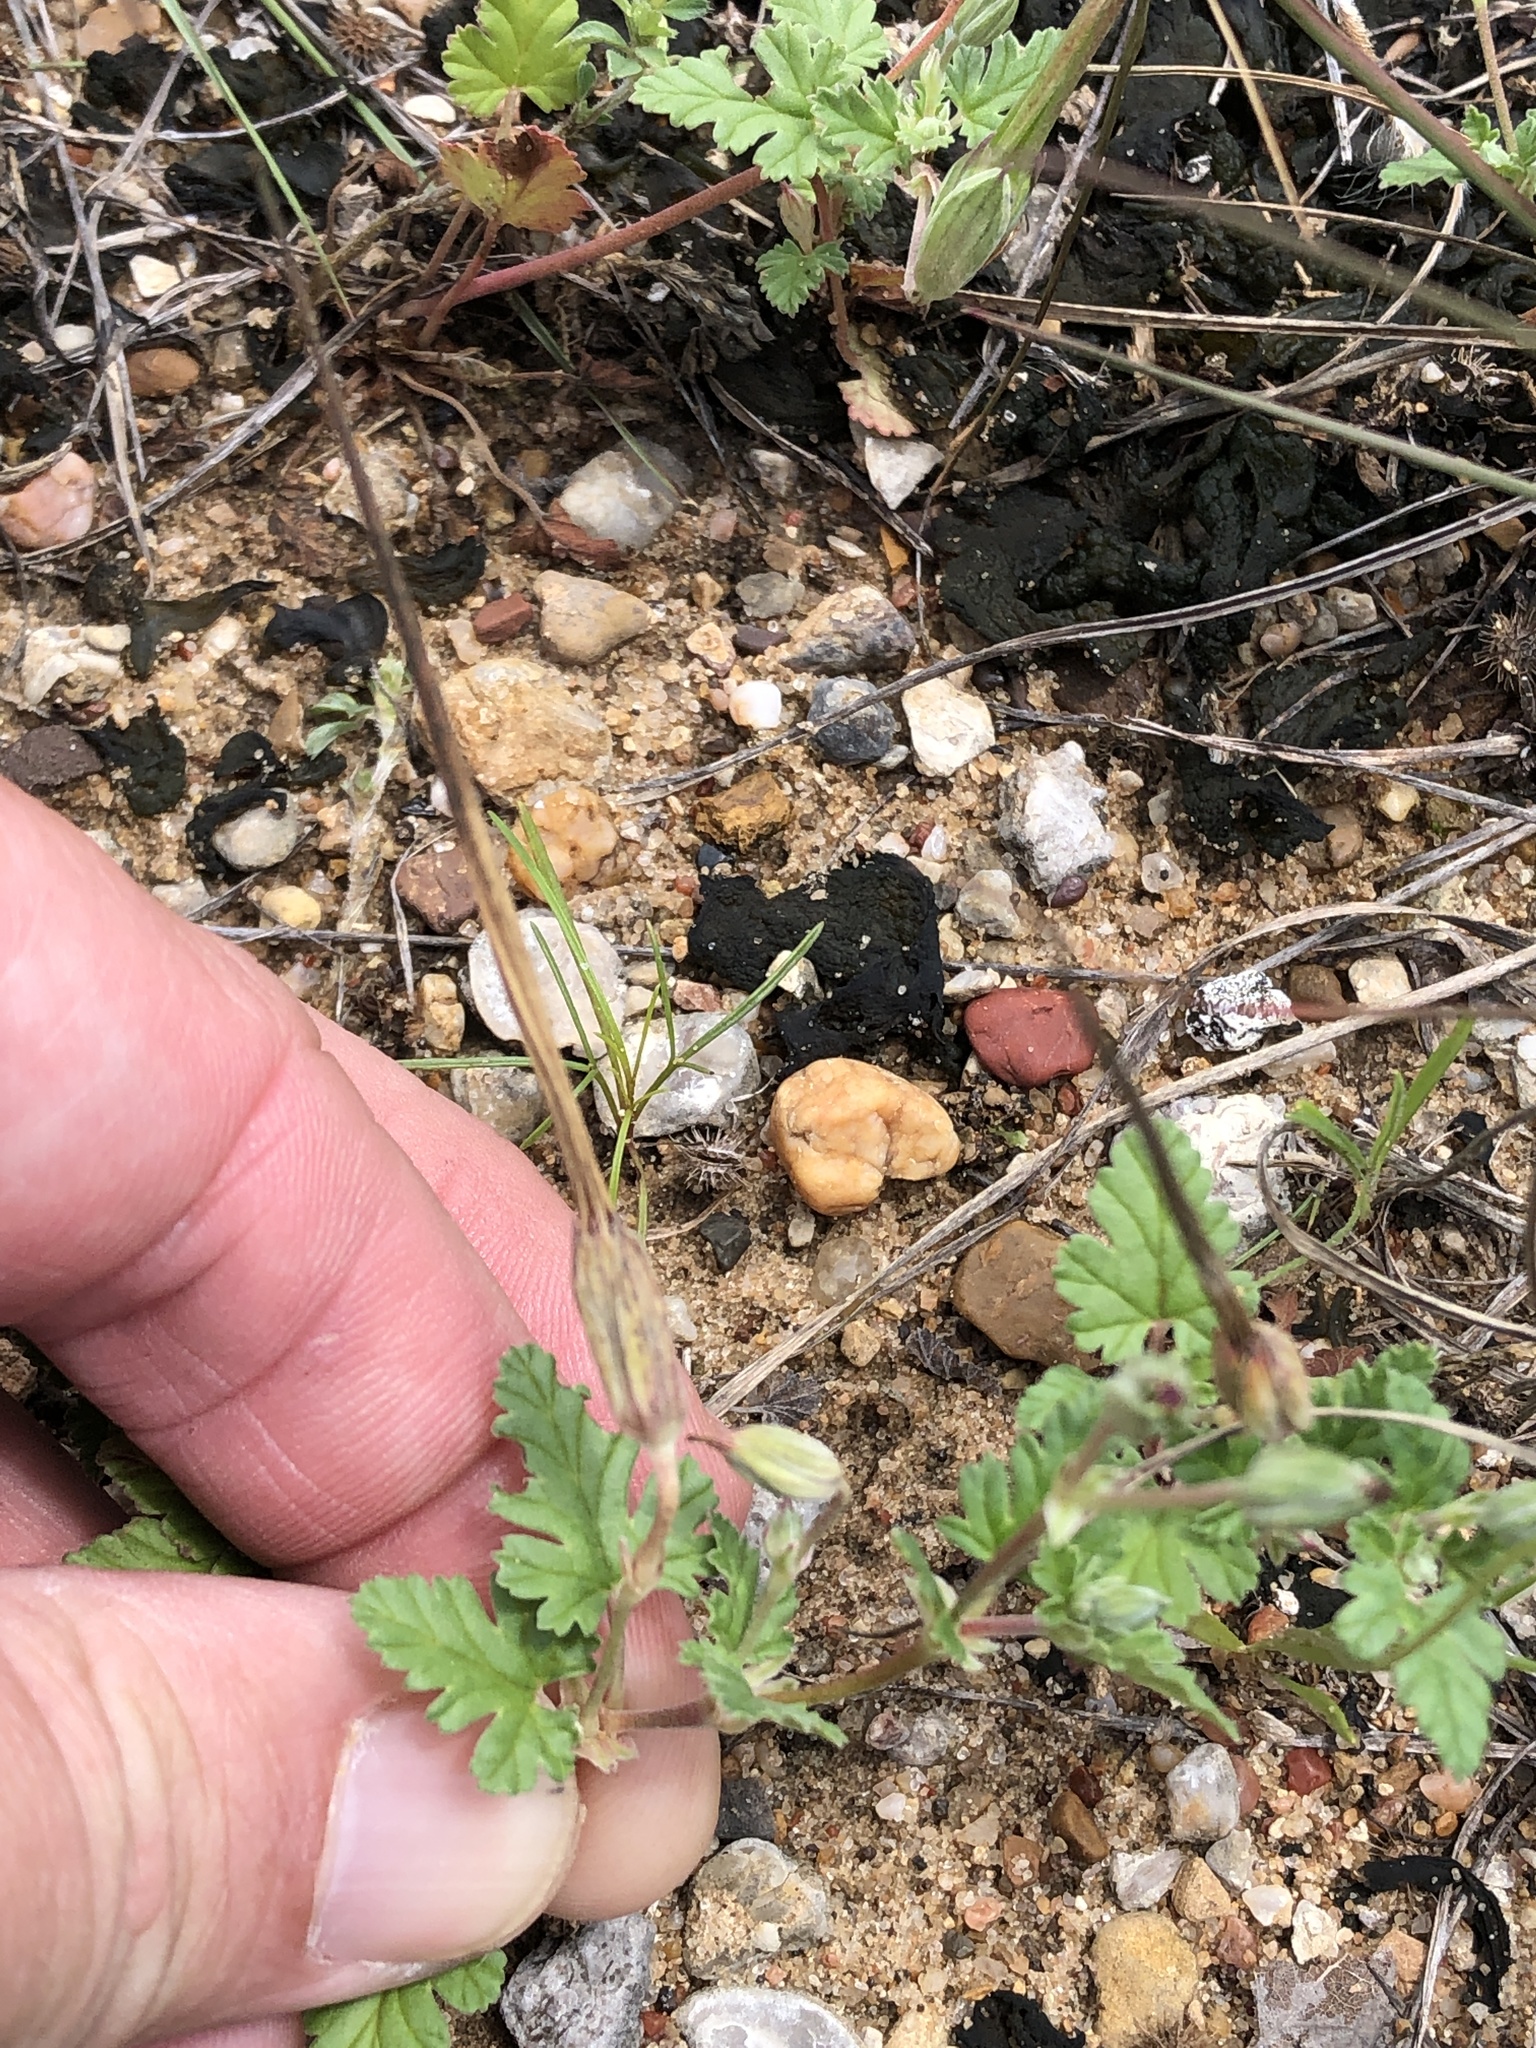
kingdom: Plantae
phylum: Tracheophyta
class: Magnoliopsida
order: Geraniales
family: Geraniaceae
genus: Erodium
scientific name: Erodium texanum
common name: Texas stork's-bill
